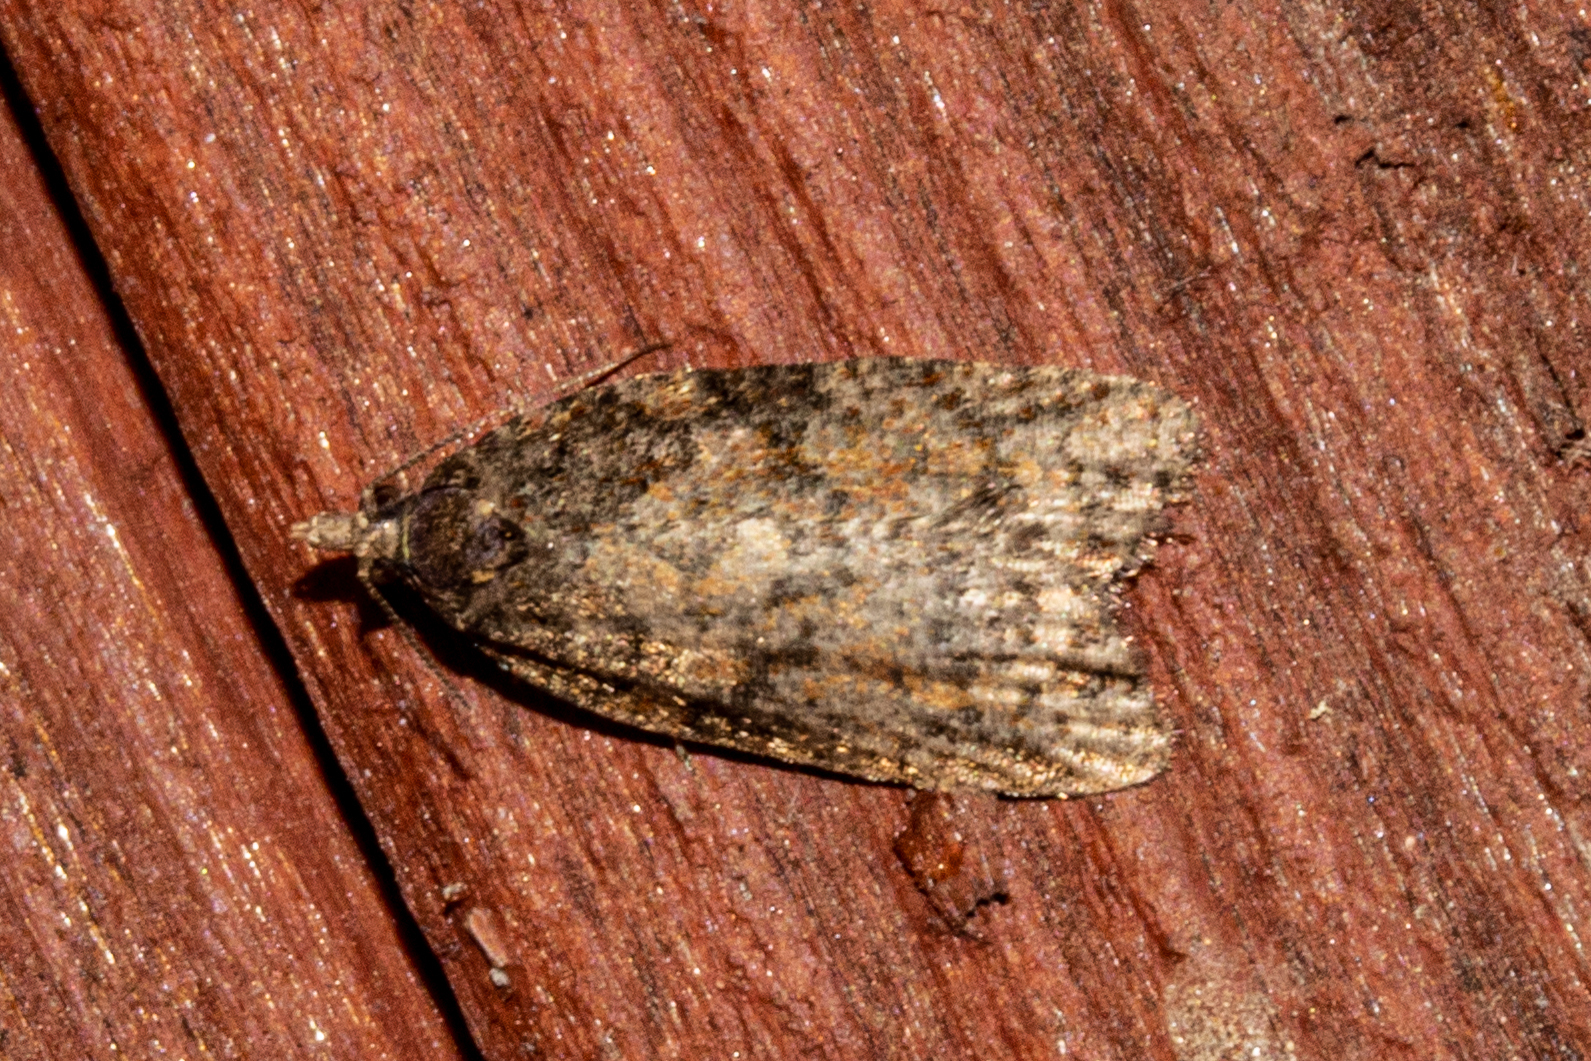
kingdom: Animalia
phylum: Arthropoda
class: Insecta
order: Lepidoptera
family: Tortricidae
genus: Capua
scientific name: Capua intractana
